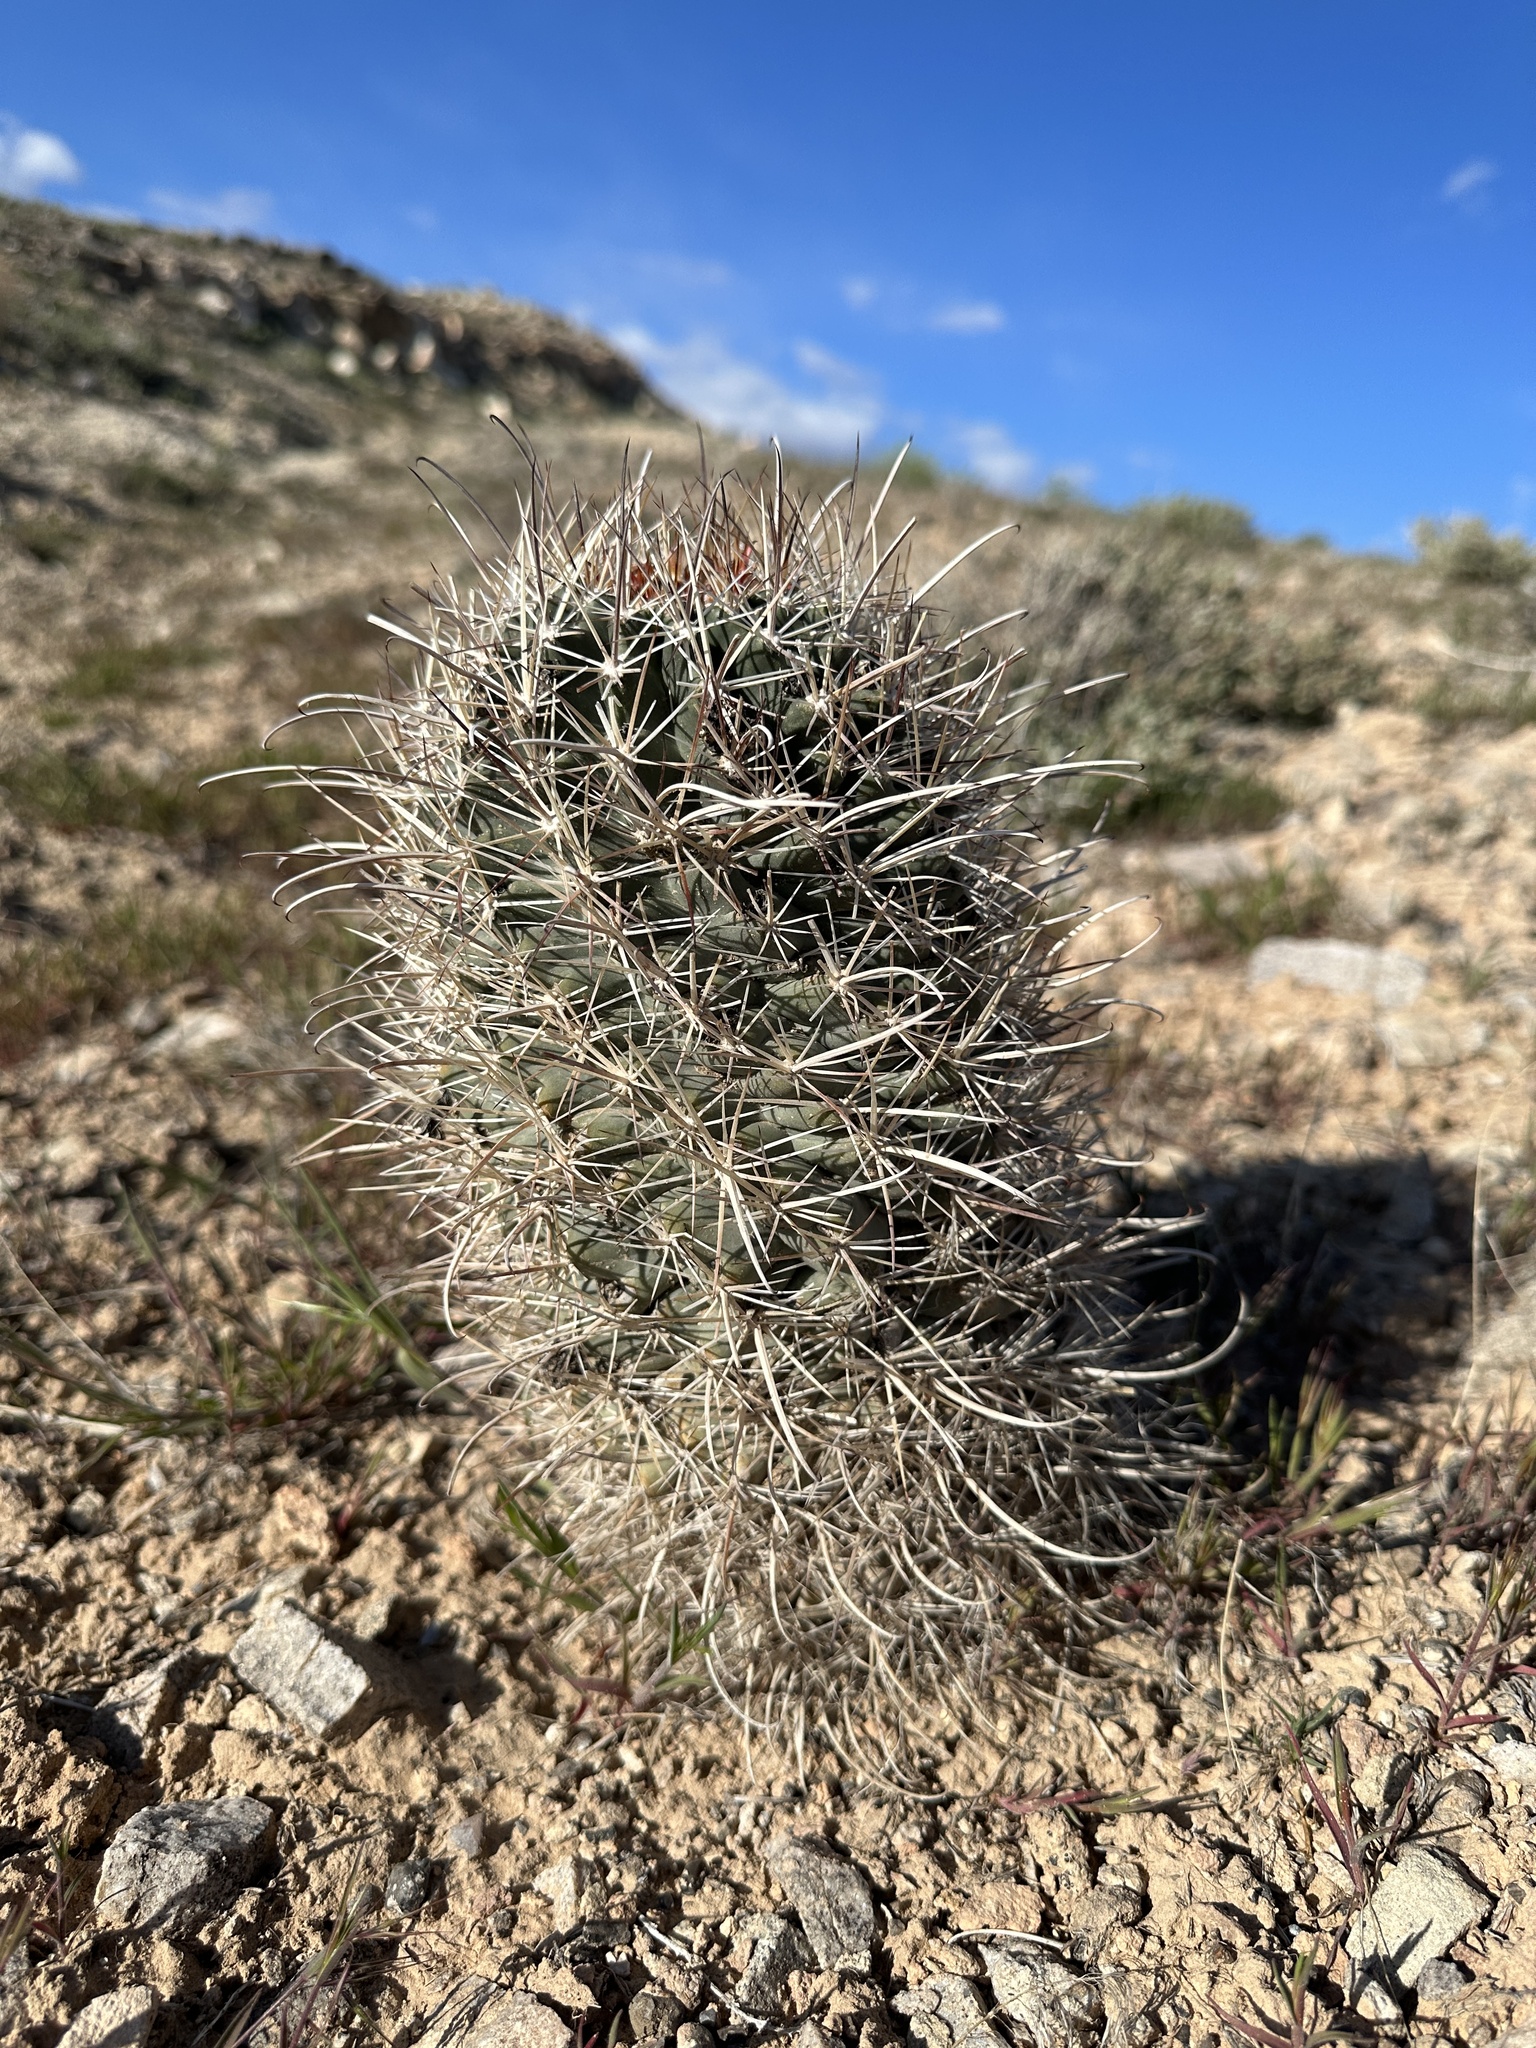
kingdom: Plantae
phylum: Tracheophyta
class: Magnoliopsida
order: Caryophyllales
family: Cactaceae
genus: Sclerocactus
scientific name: Sclerocactus parviflorus
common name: Small-flower fishhook cactus
